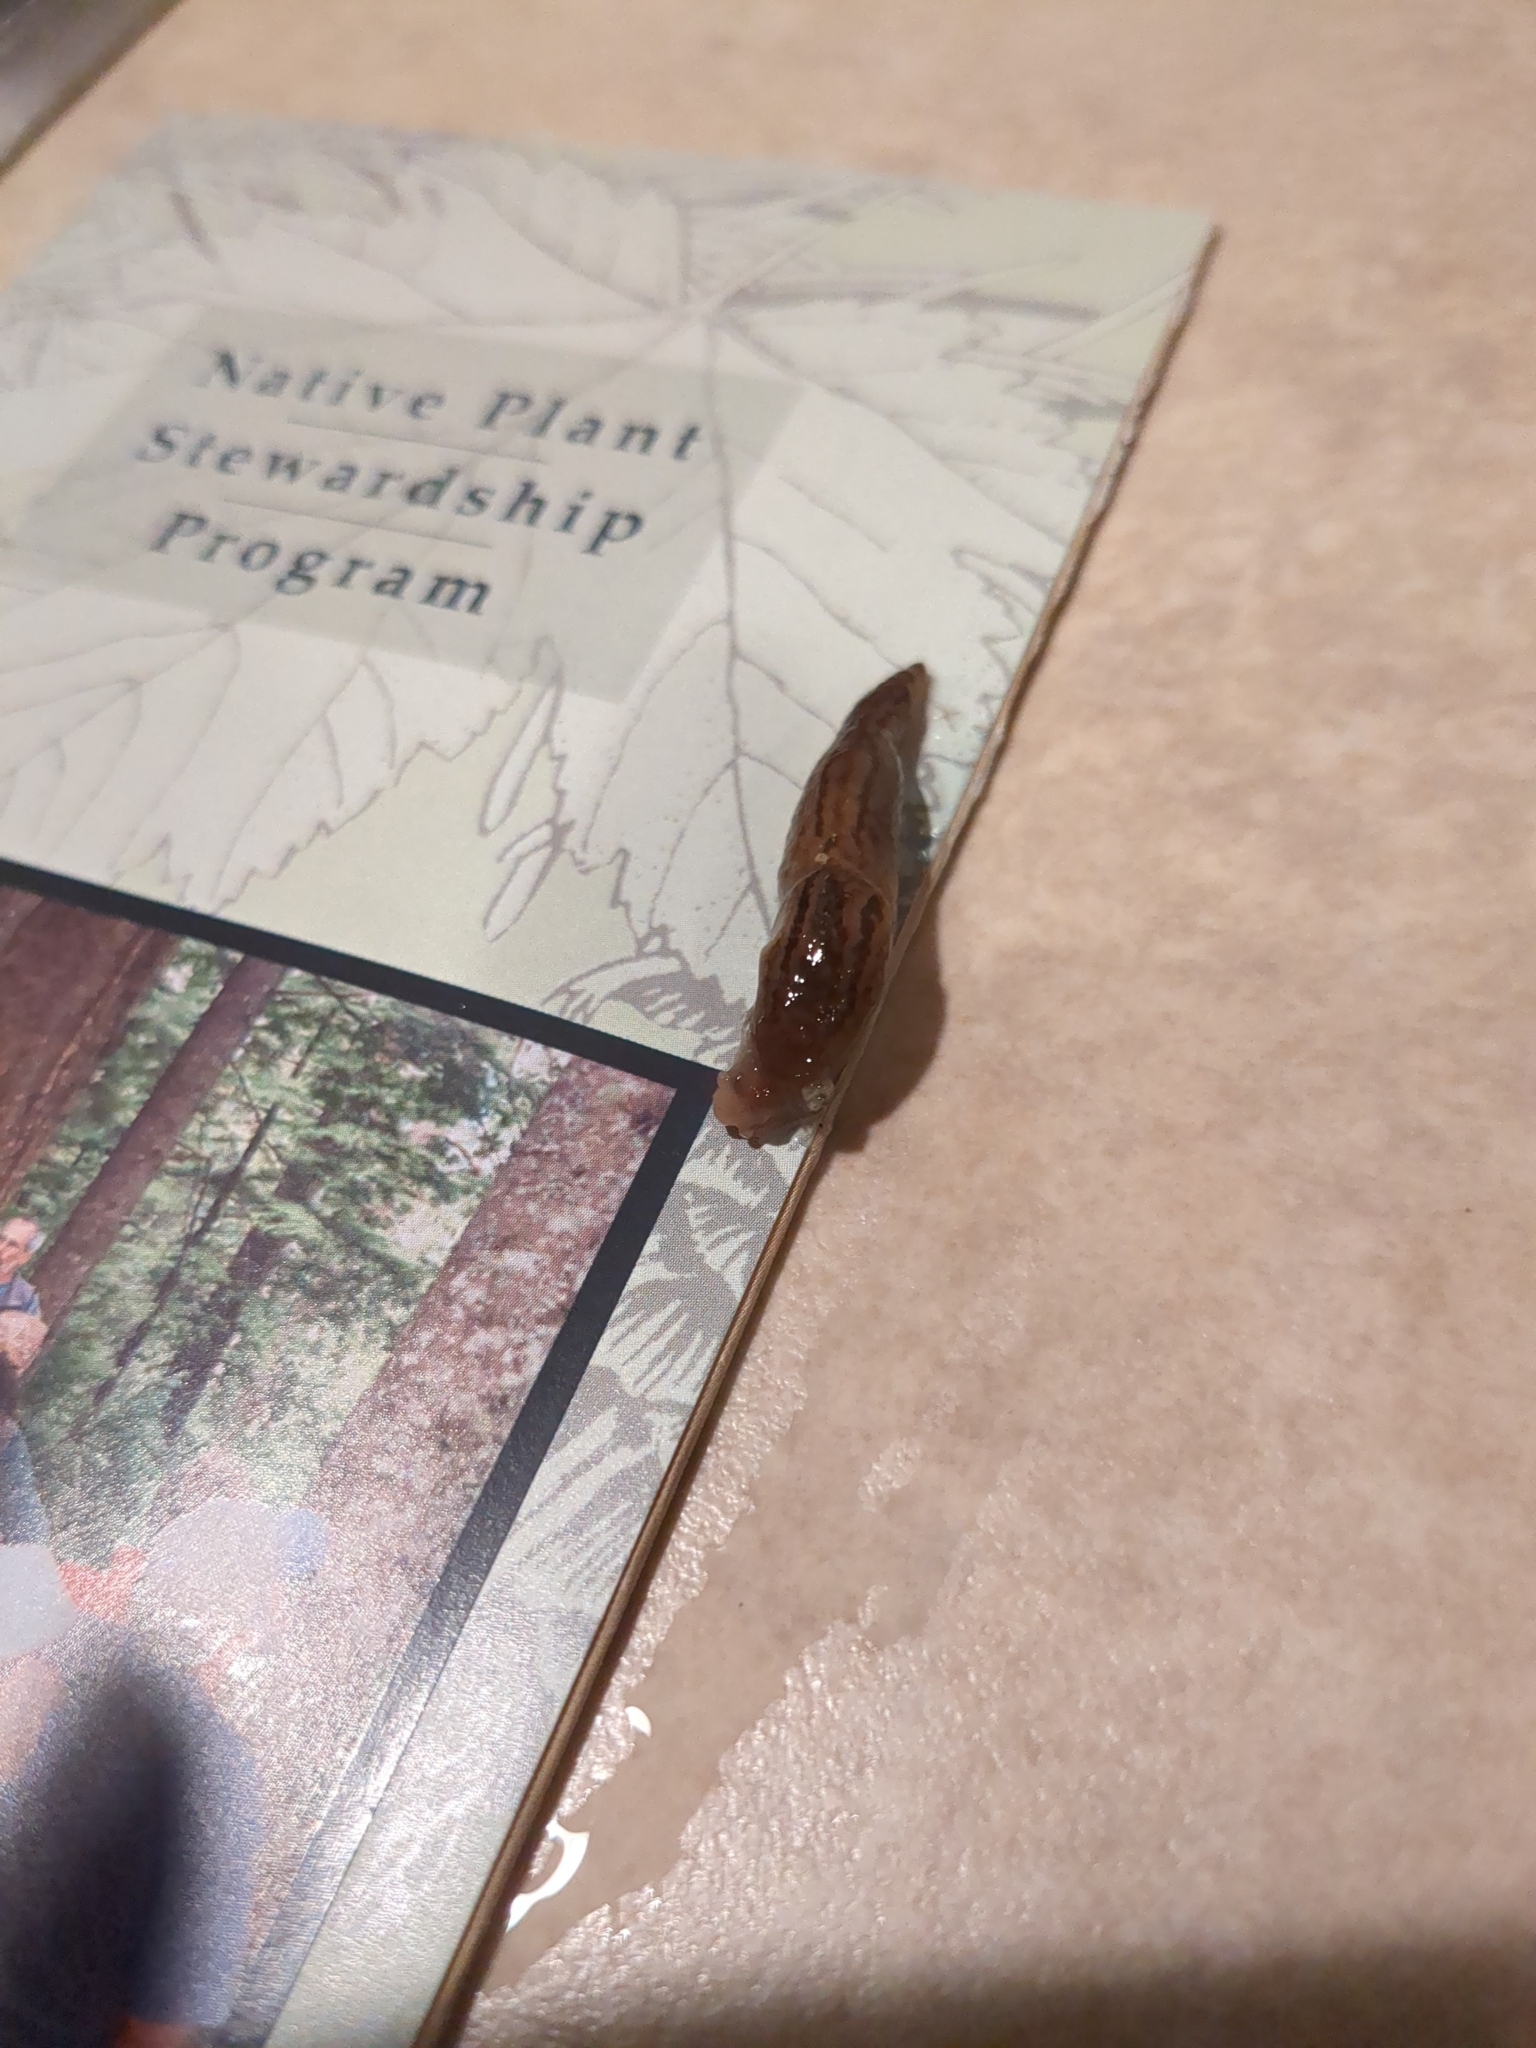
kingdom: Animalia
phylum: Mollusca
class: Gastropoda
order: Stylommatophora
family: Limacidae
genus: Ambigolimax
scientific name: Ambigolimax valentianus
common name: Greenhouse slug
